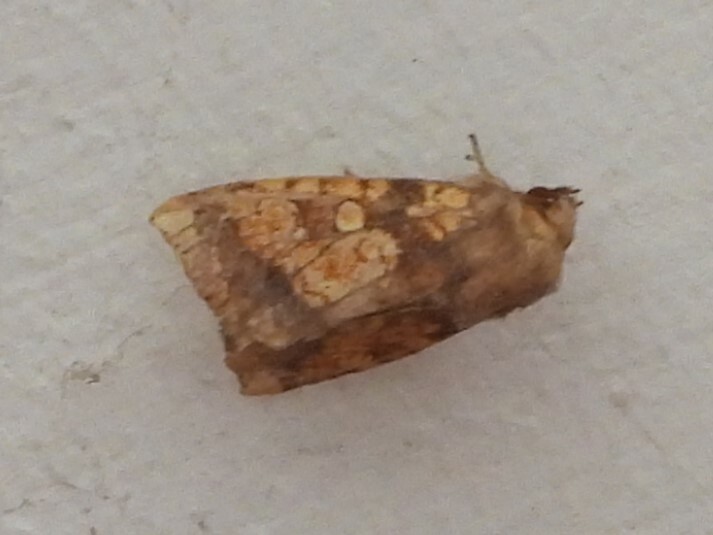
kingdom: Animalia
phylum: Arthropoda
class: Insecta
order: Lepidoptera
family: Noctuidae
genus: Gortyna
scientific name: Gortyna flavago
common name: Frosted orange
